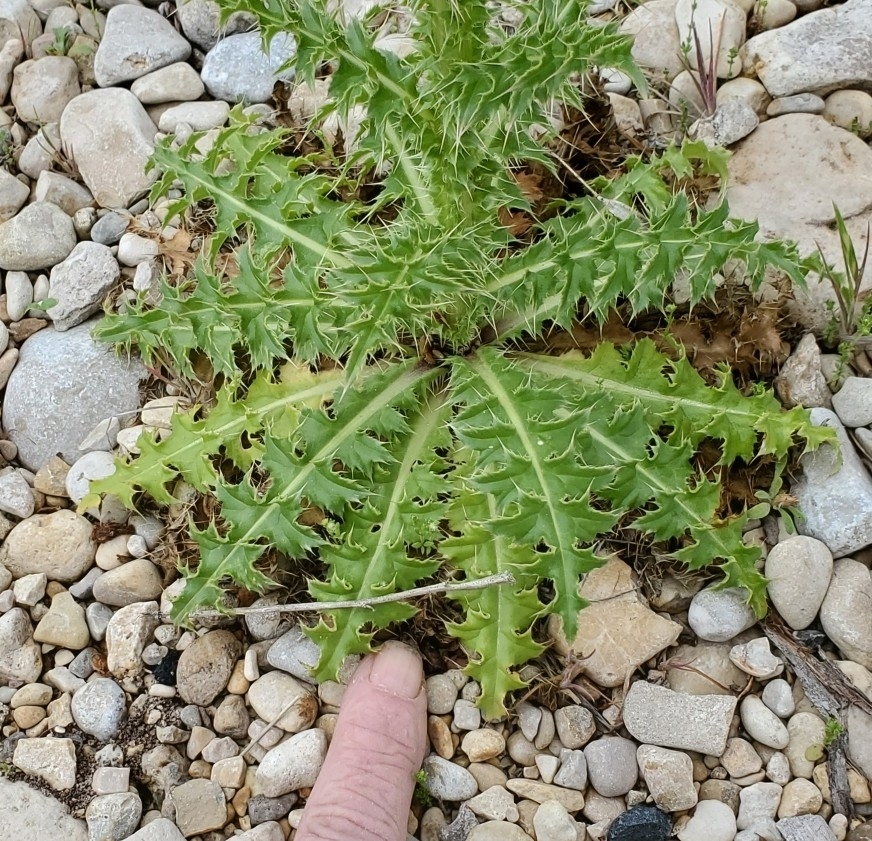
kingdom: Plantae
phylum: Tracheophyta
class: Magnoliopsida
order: Asterales
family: Asteraceae
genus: Carduus
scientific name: Carduus nutans
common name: Musk thistle
